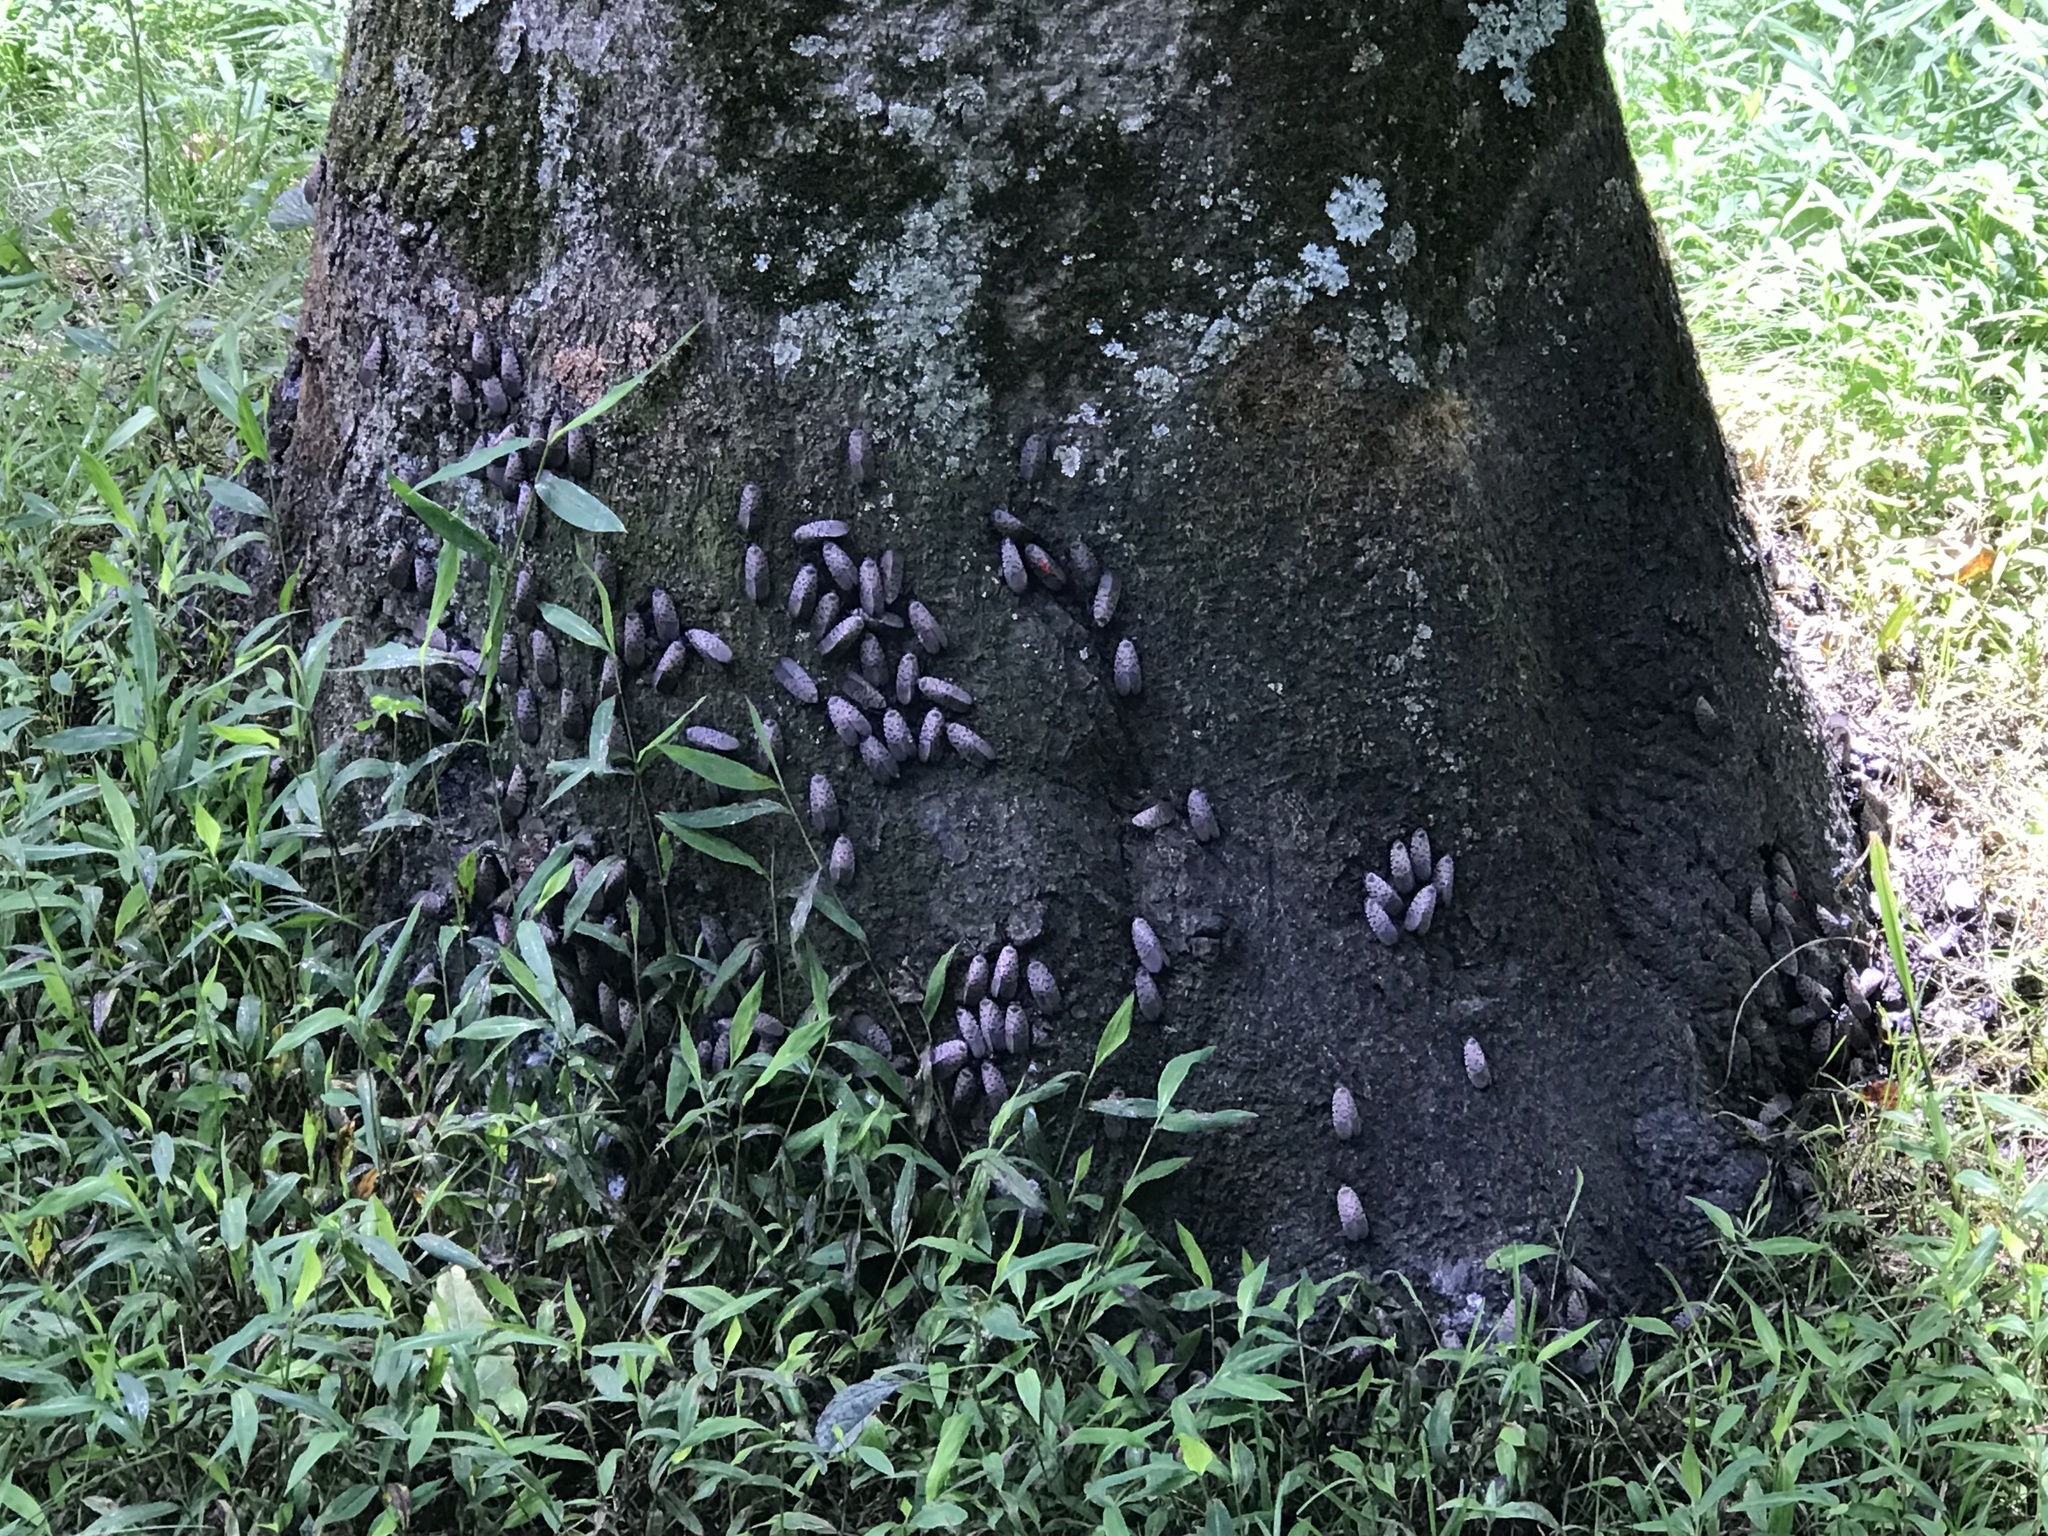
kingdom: Animalia
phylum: Arthropoda
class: Insecta
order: Hemiptera
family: Fulgoridae
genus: Lycorma
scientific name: Lycorma delicatula
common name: Spotted lanternfly
